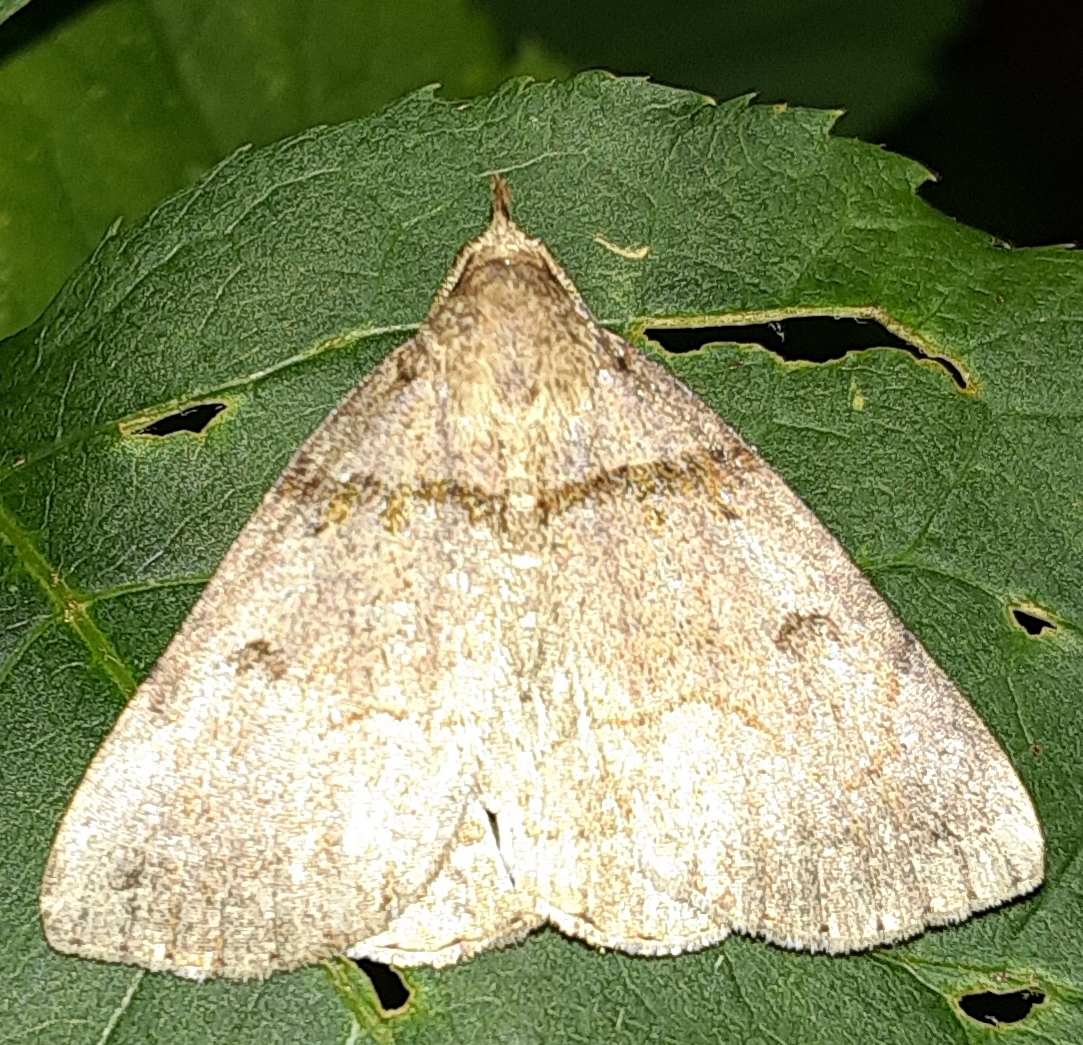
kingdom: Animalia
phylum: Arthropoda
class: Insecta
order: Lepidoptera
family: Erebidae
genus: Zanclognatha
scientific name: Zanclognatha laevigata
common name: Variable fan-foot
